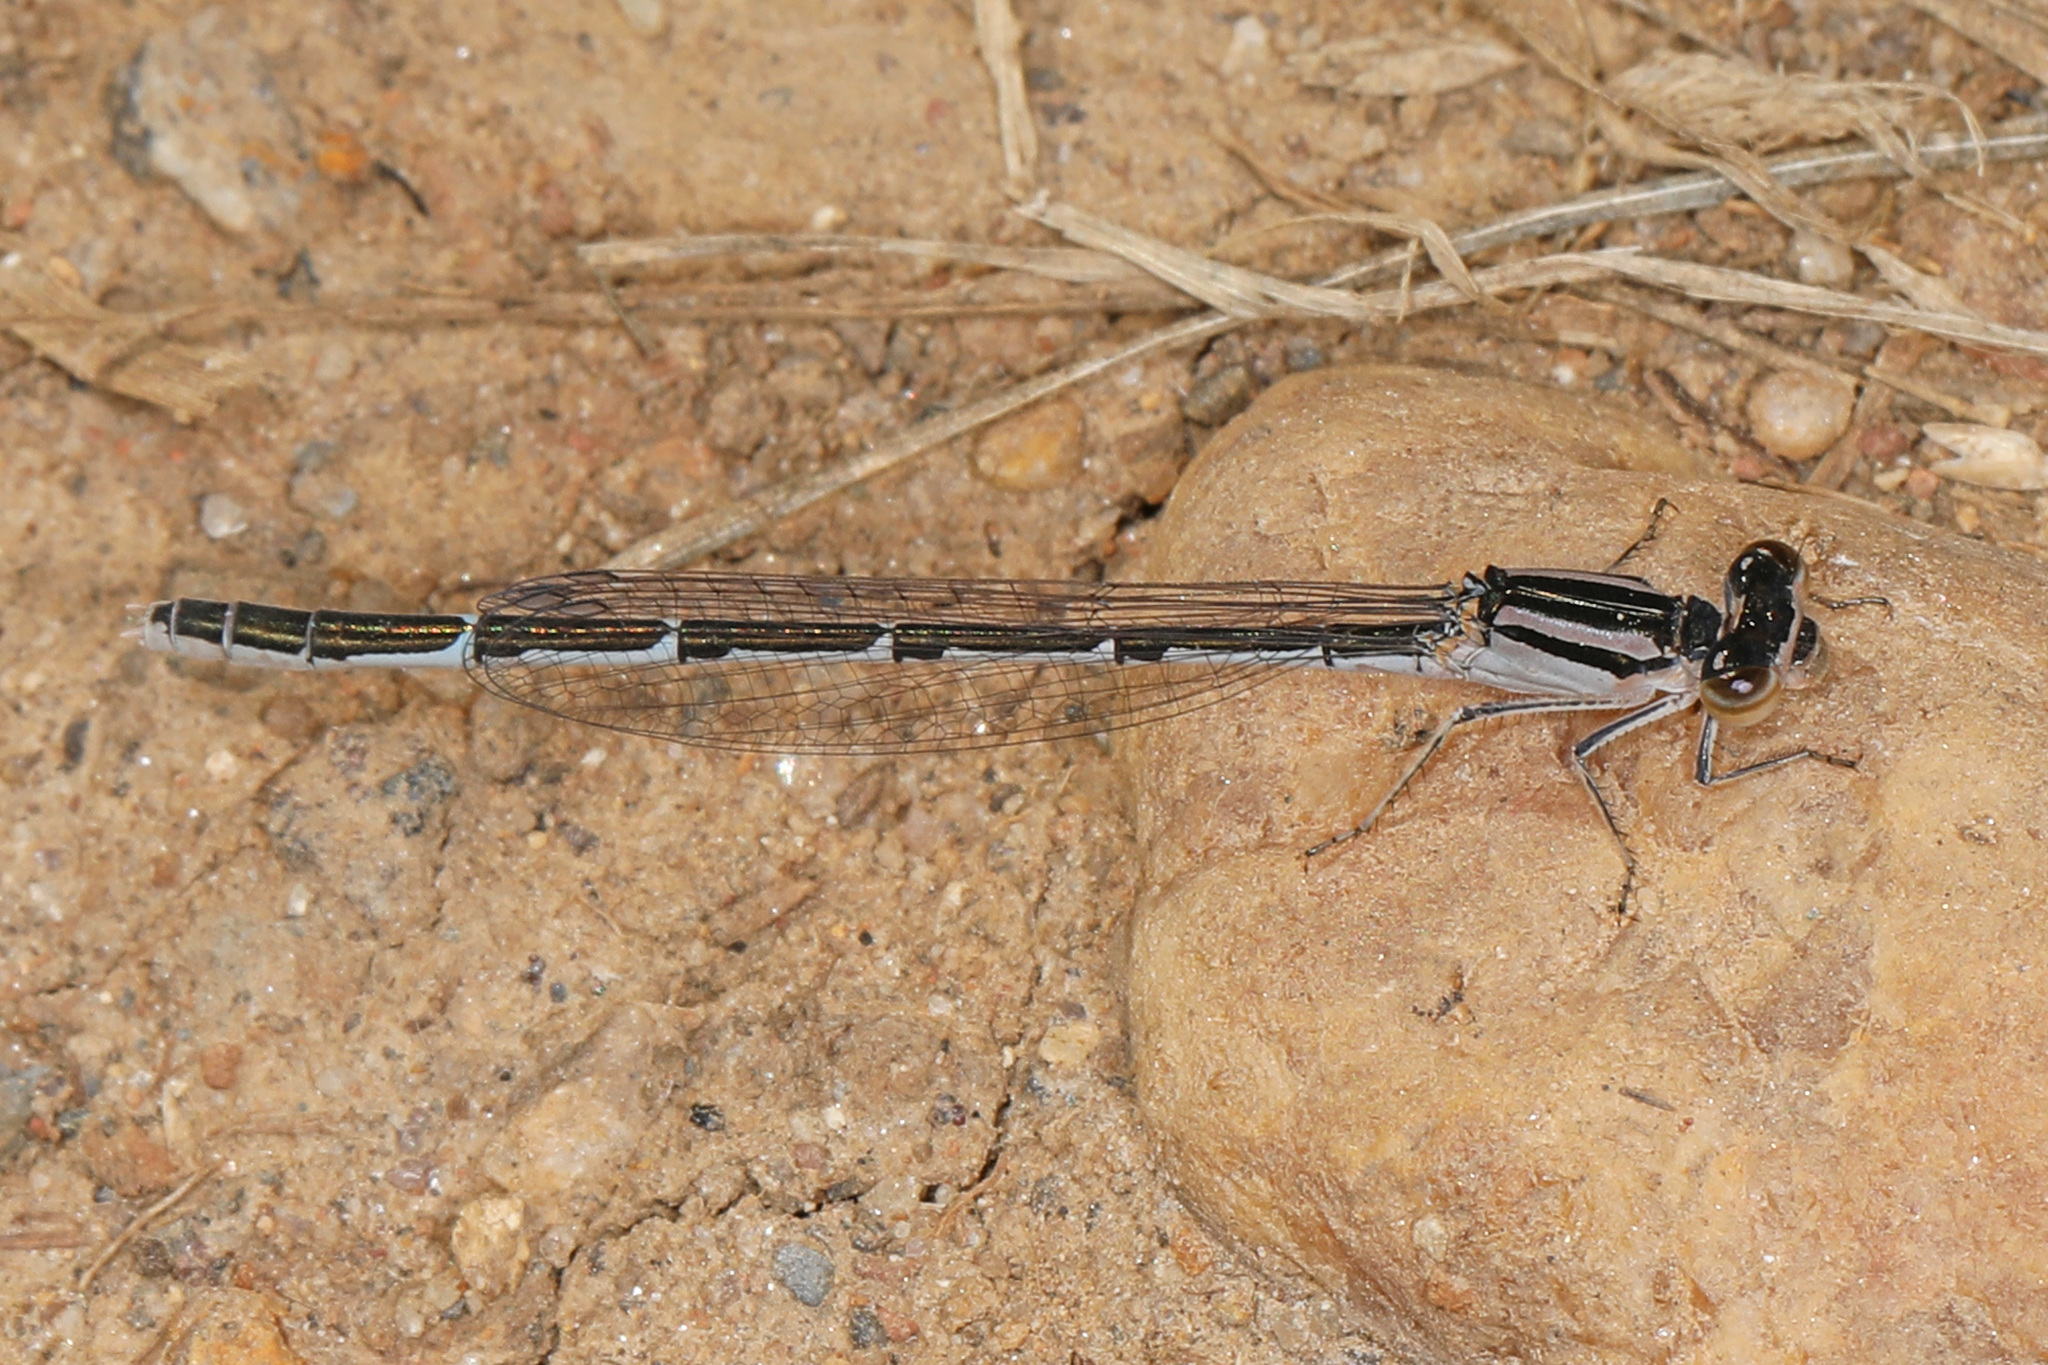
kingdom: Animalia
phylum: Arthropoda
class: Insecta
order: Odonata
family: Coenagrionidae
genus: Enallagma
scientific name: Enallagma durum
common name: Big bluet
